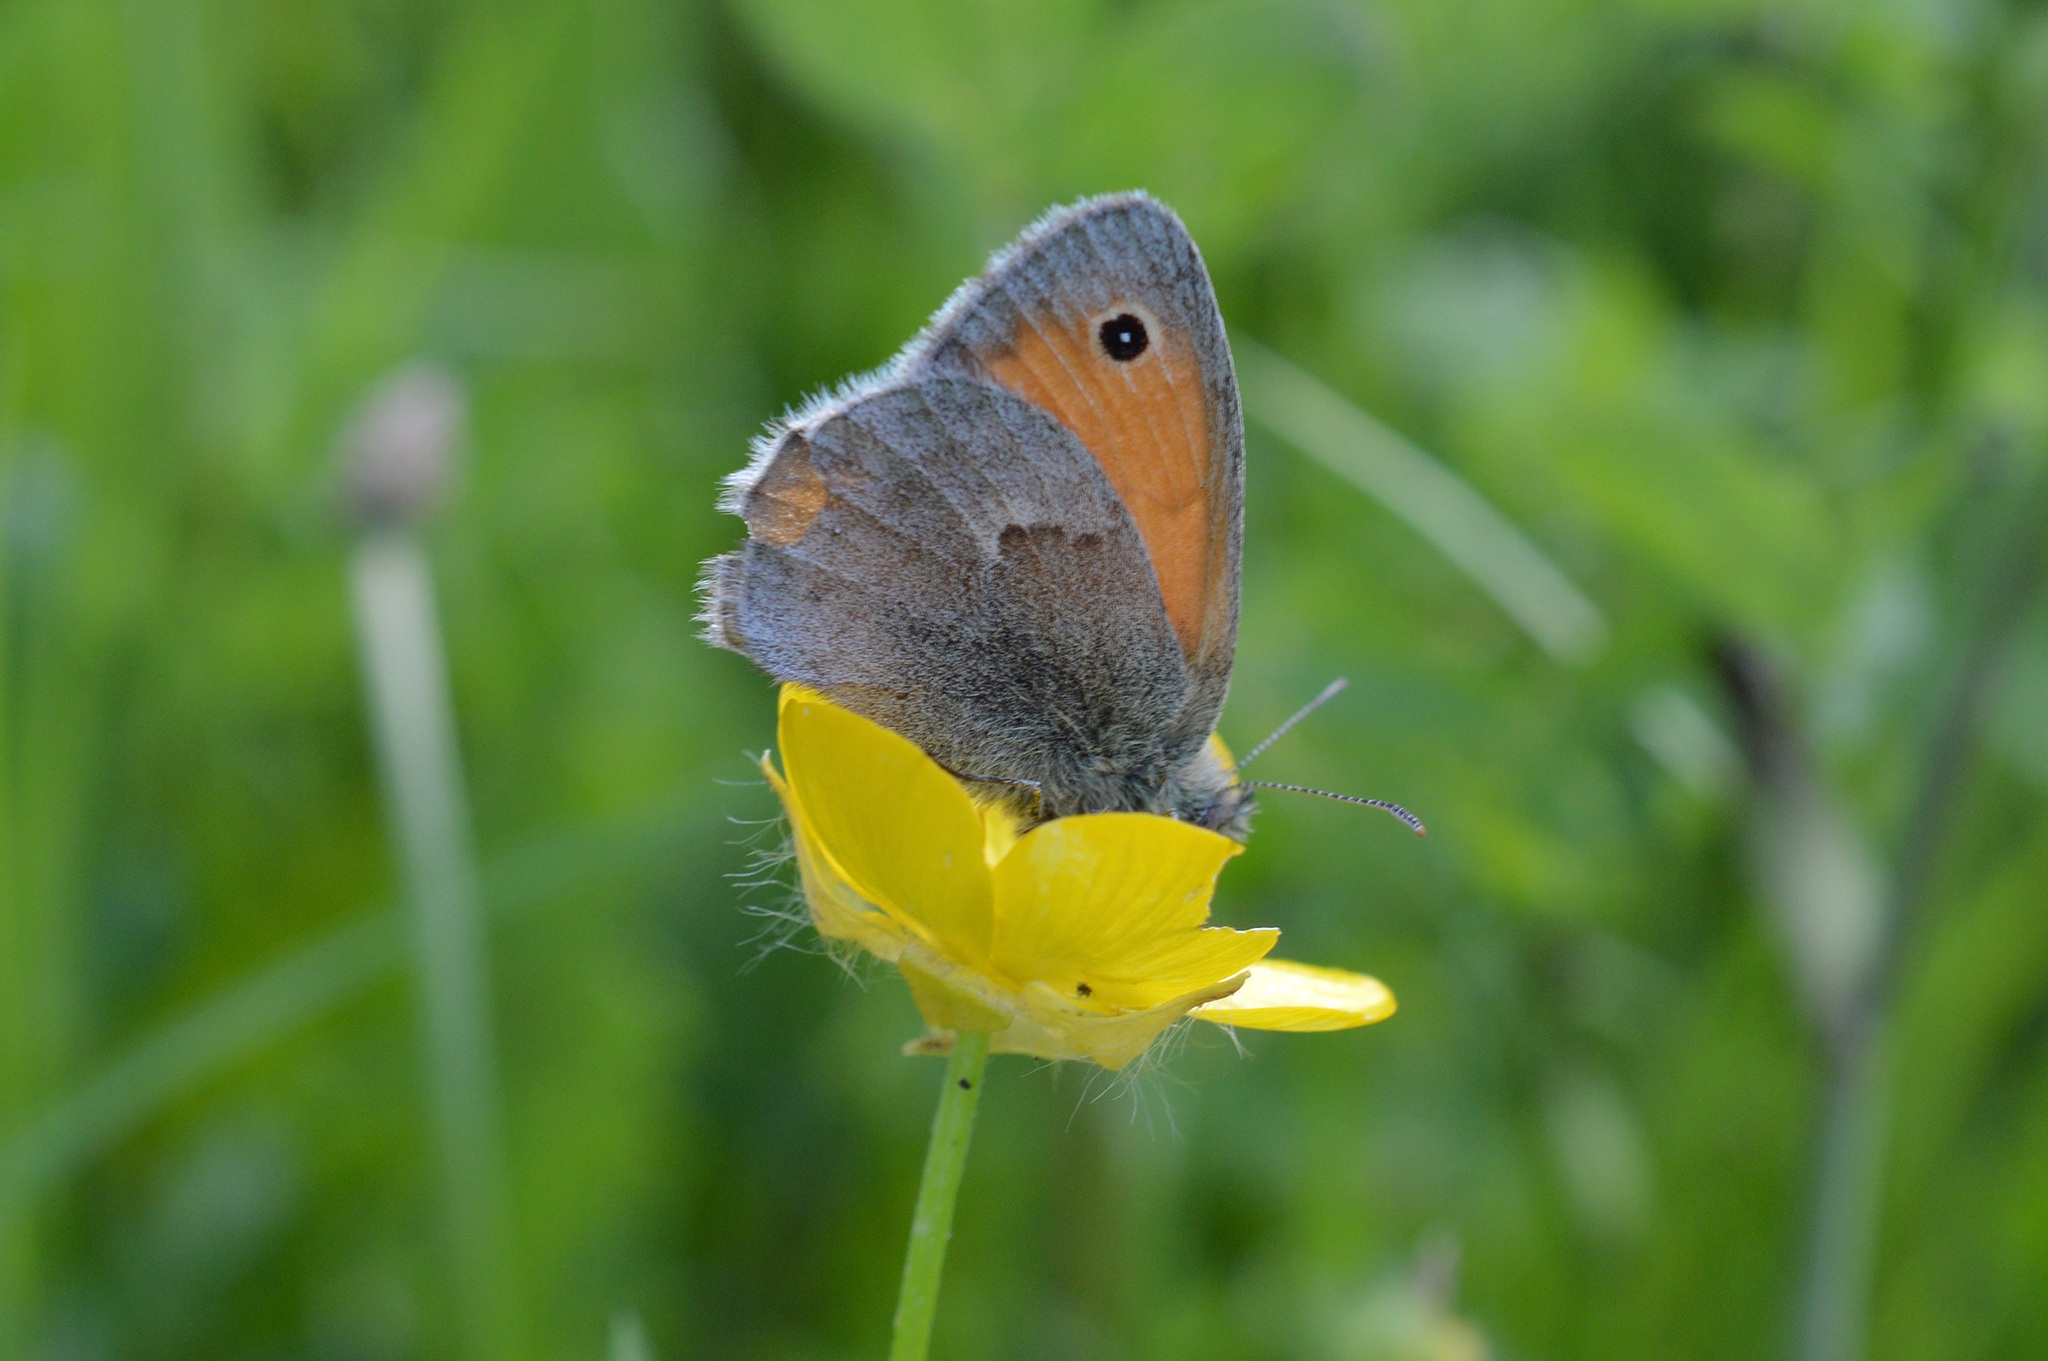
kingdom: Animalia
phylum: Arthropoda
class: Insecta
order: Lepidoptera
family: Nymphalidae
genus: Coenonympha
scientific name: Coenonympha pamphilus
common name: Small heath
